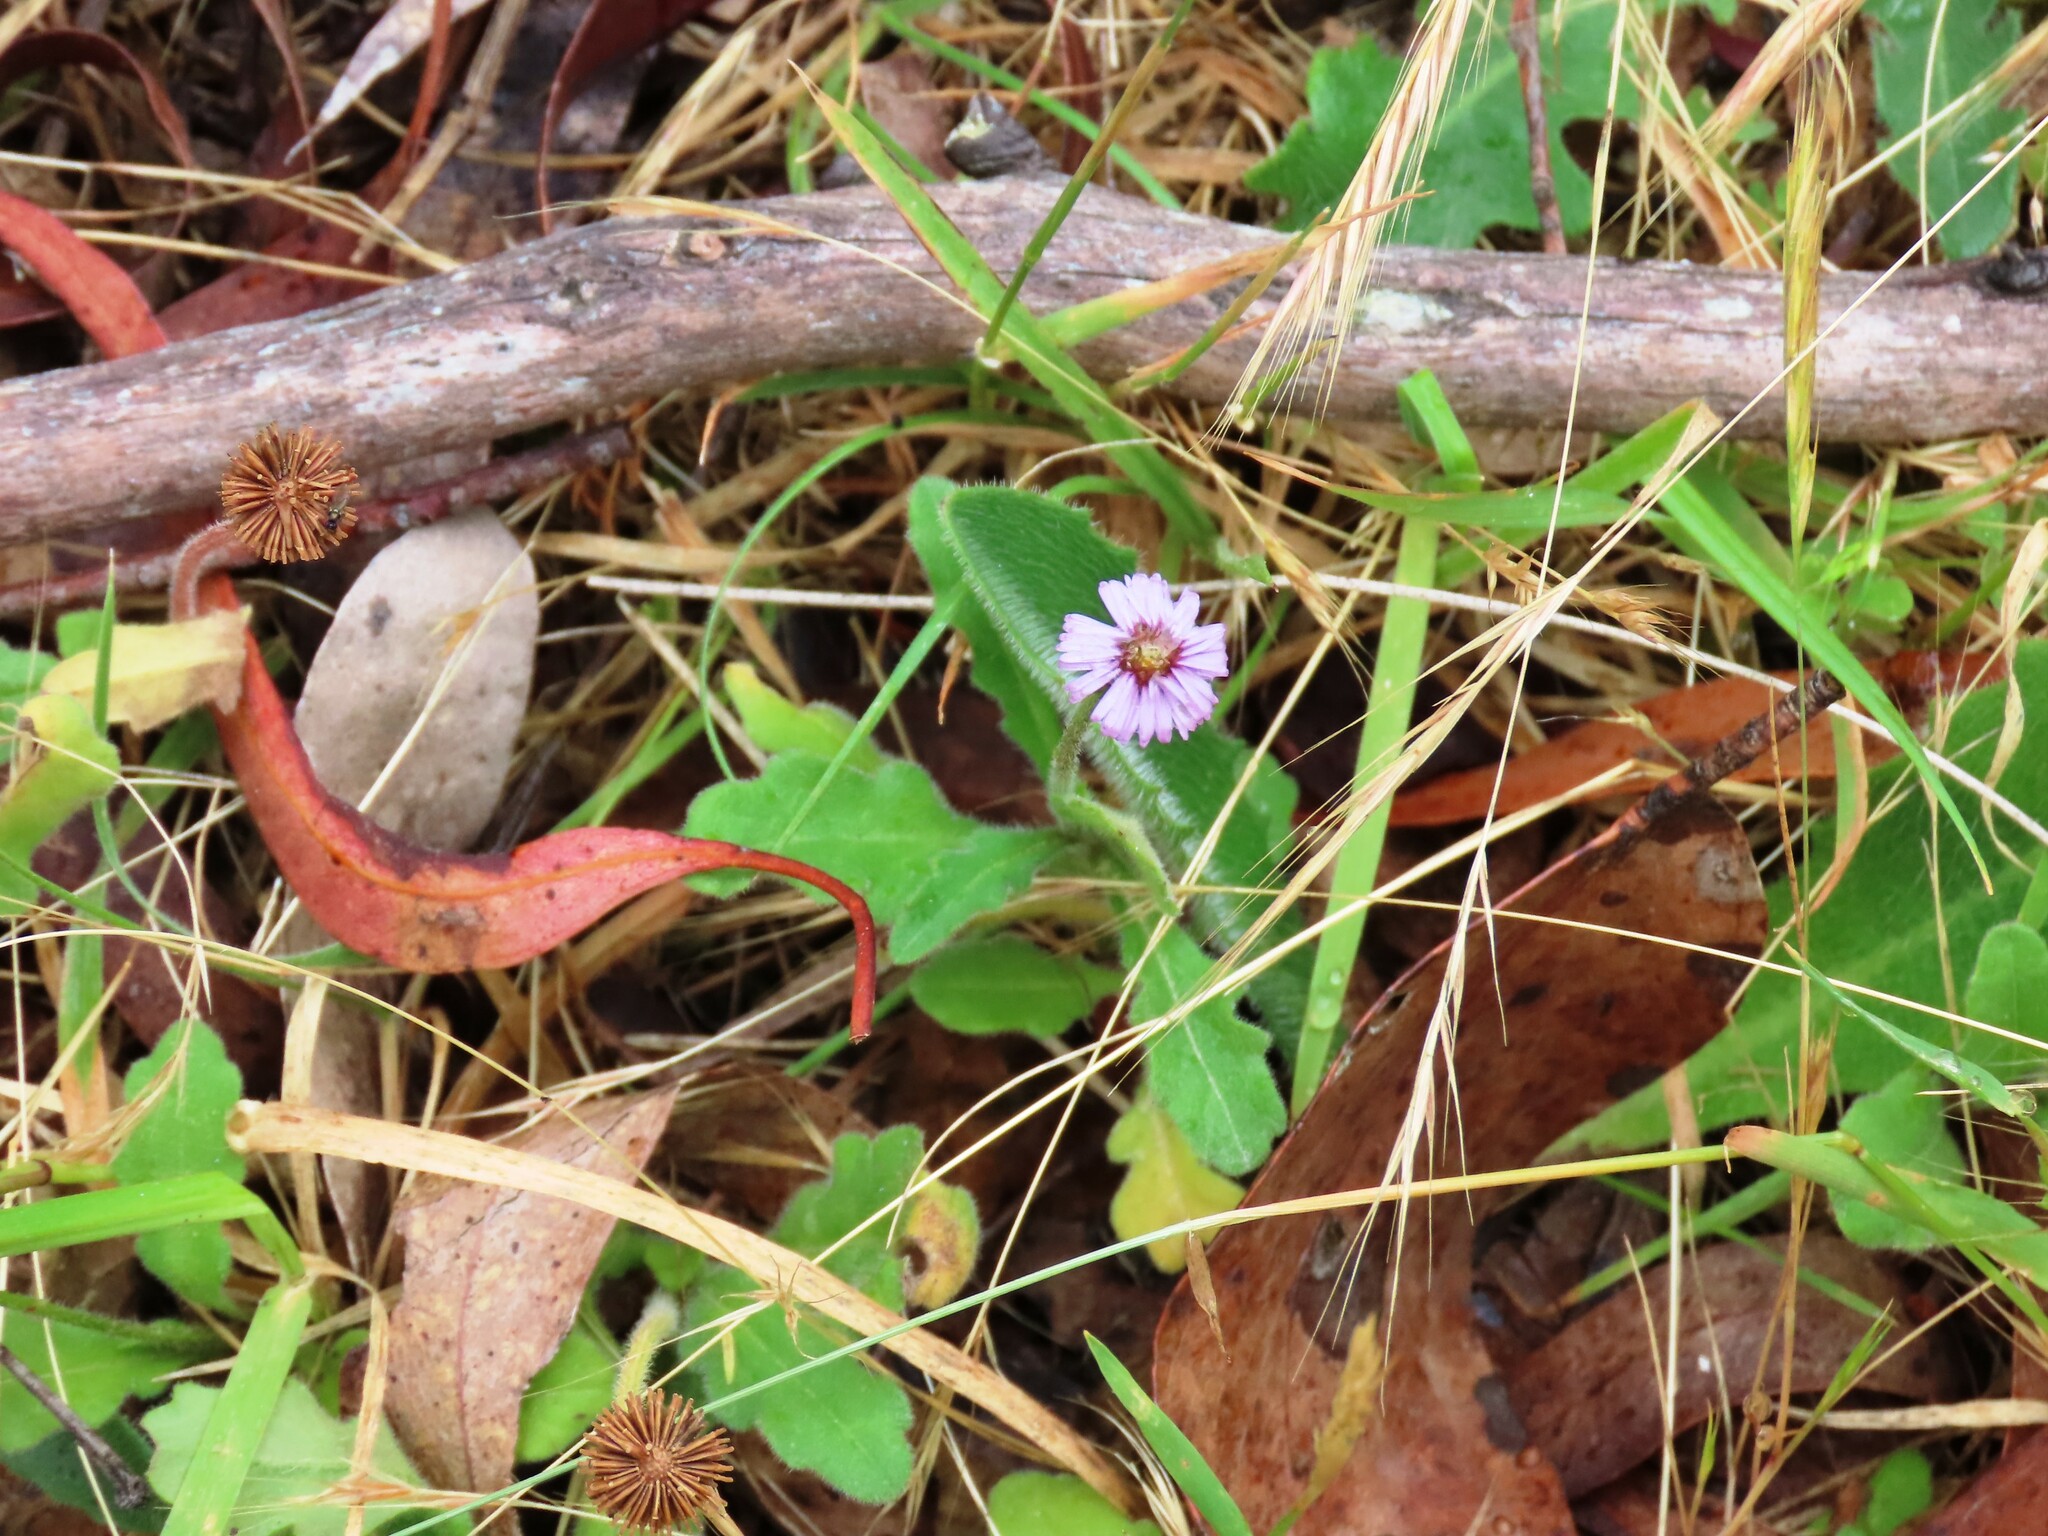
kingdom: Plantae
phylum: Tracheophyta
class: Magnoliopsida
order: Asterales
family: Asteraceae
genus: Lagenophora
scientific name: Lagenophora stipitata
